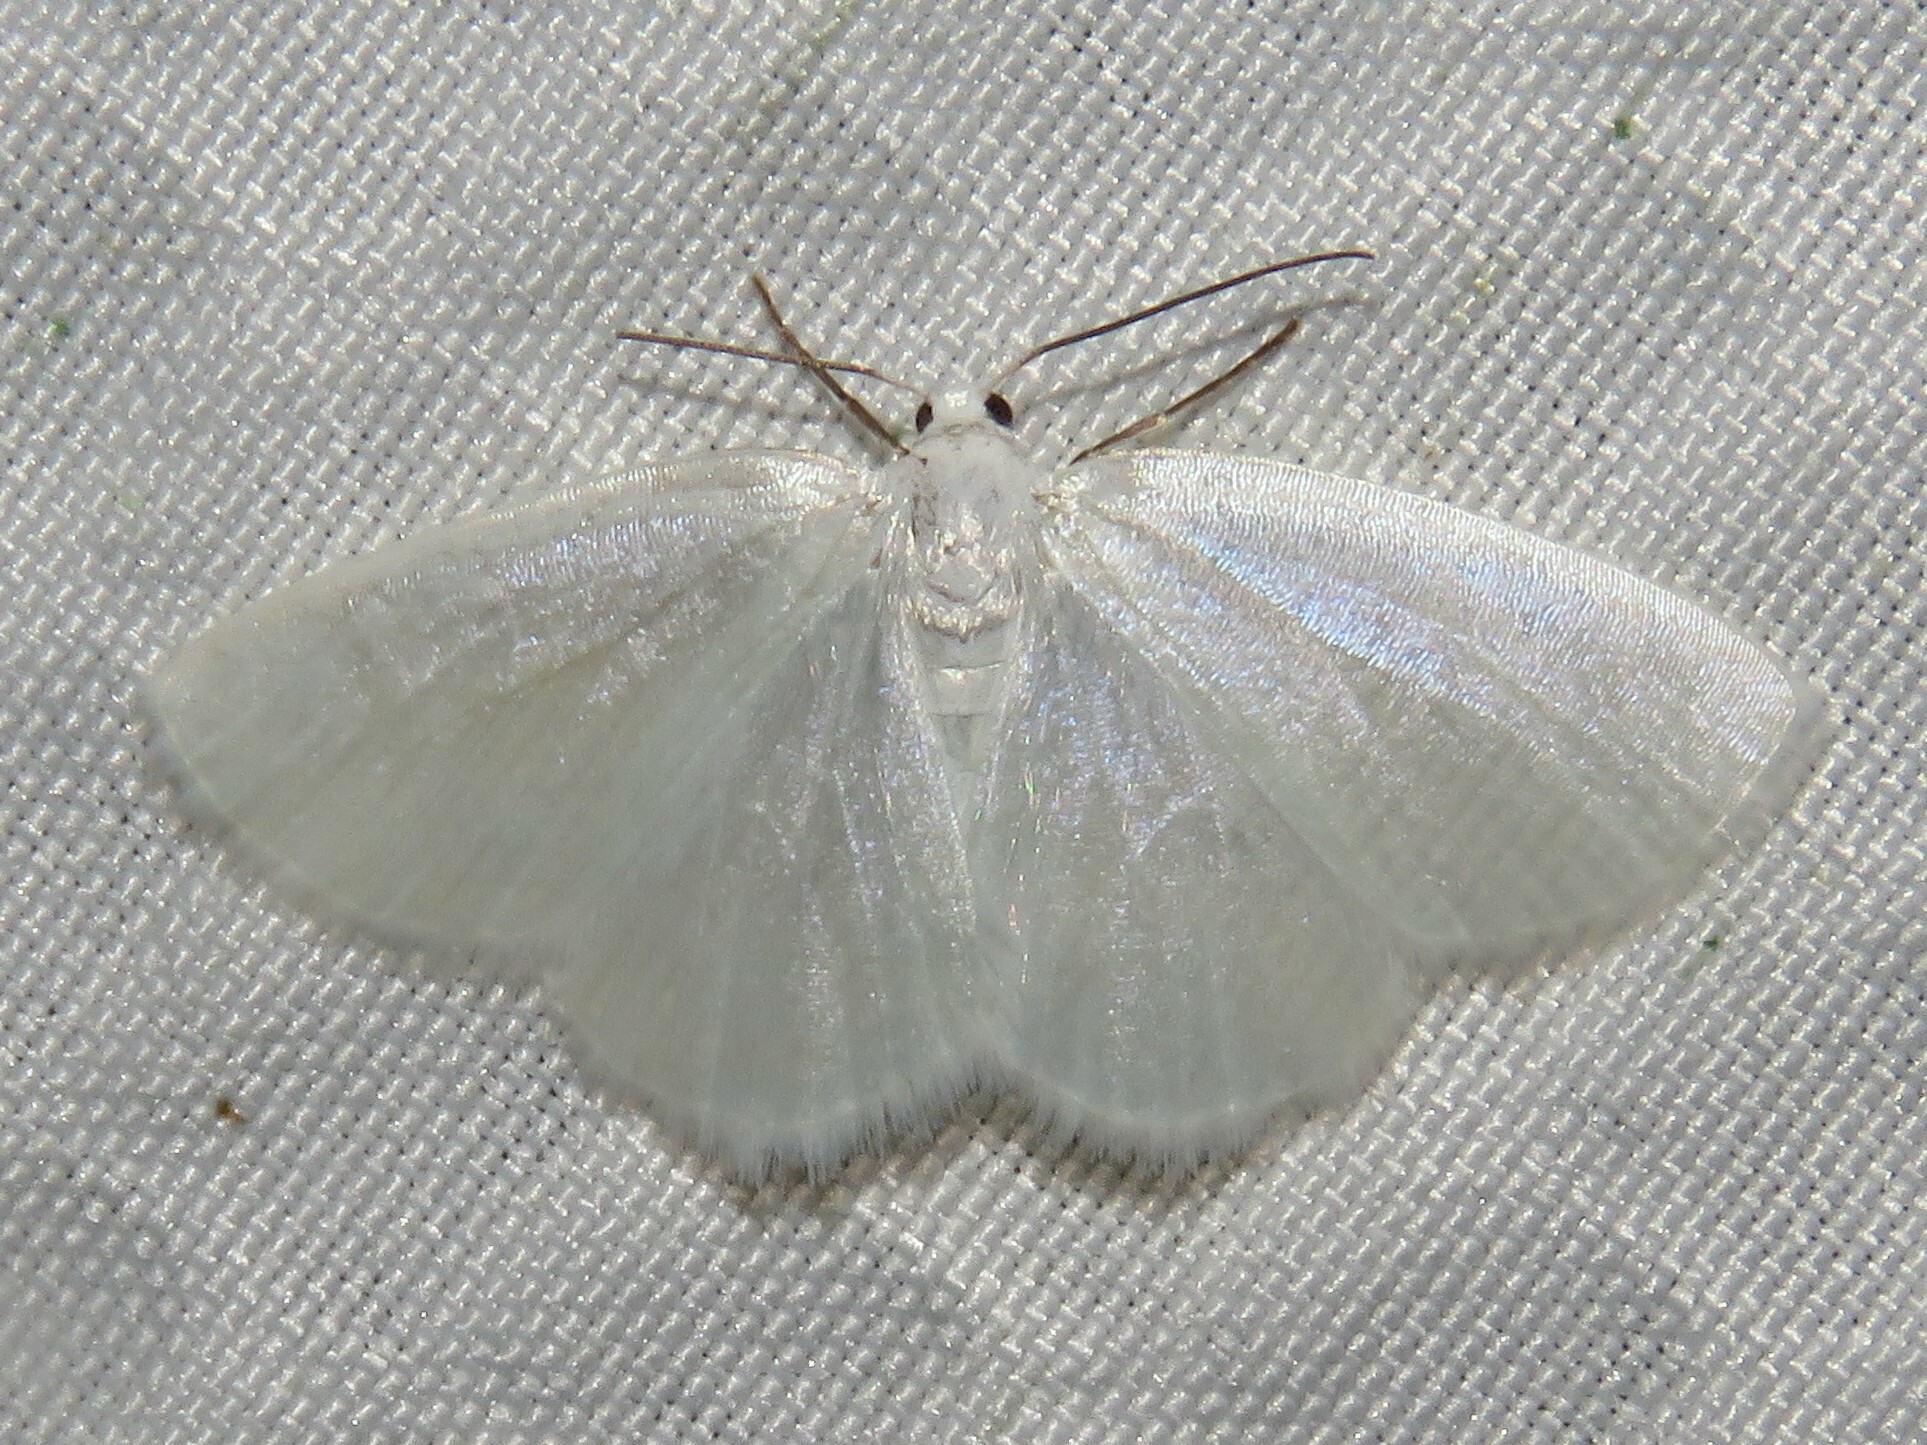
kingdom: Animalia
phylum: Arthropoda
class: Insecta
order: Lepidoptera
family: Geometridae
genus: Lomographa
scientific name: Lomographa vestaliata
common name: White spring moth
